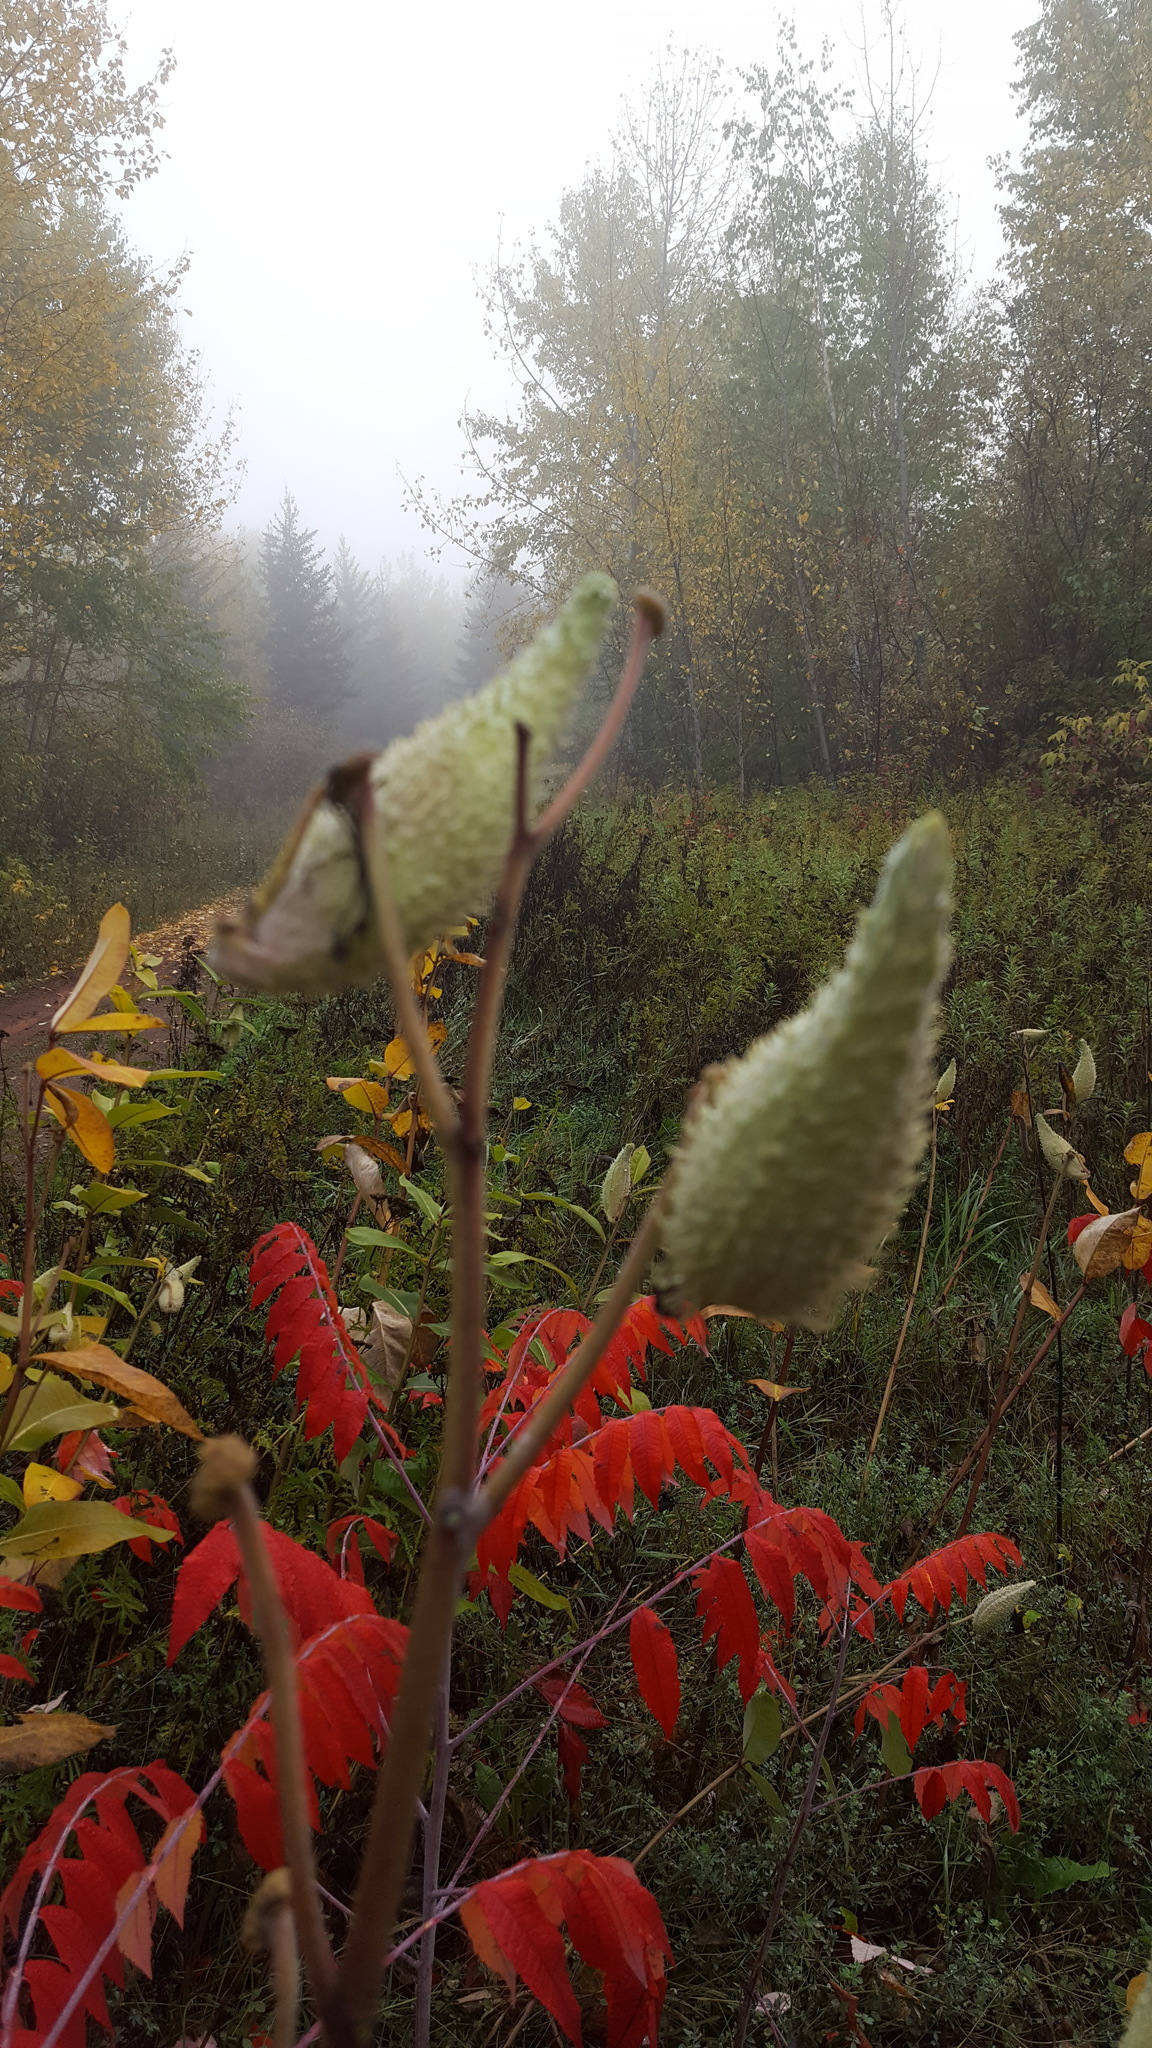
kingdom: Plantae
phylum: Tracheophyta
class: Magnoliopsida
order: Gentianales
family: Apocynaceae
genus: Asclepias
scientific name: Asclepias syriaca
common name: Common milkweed
